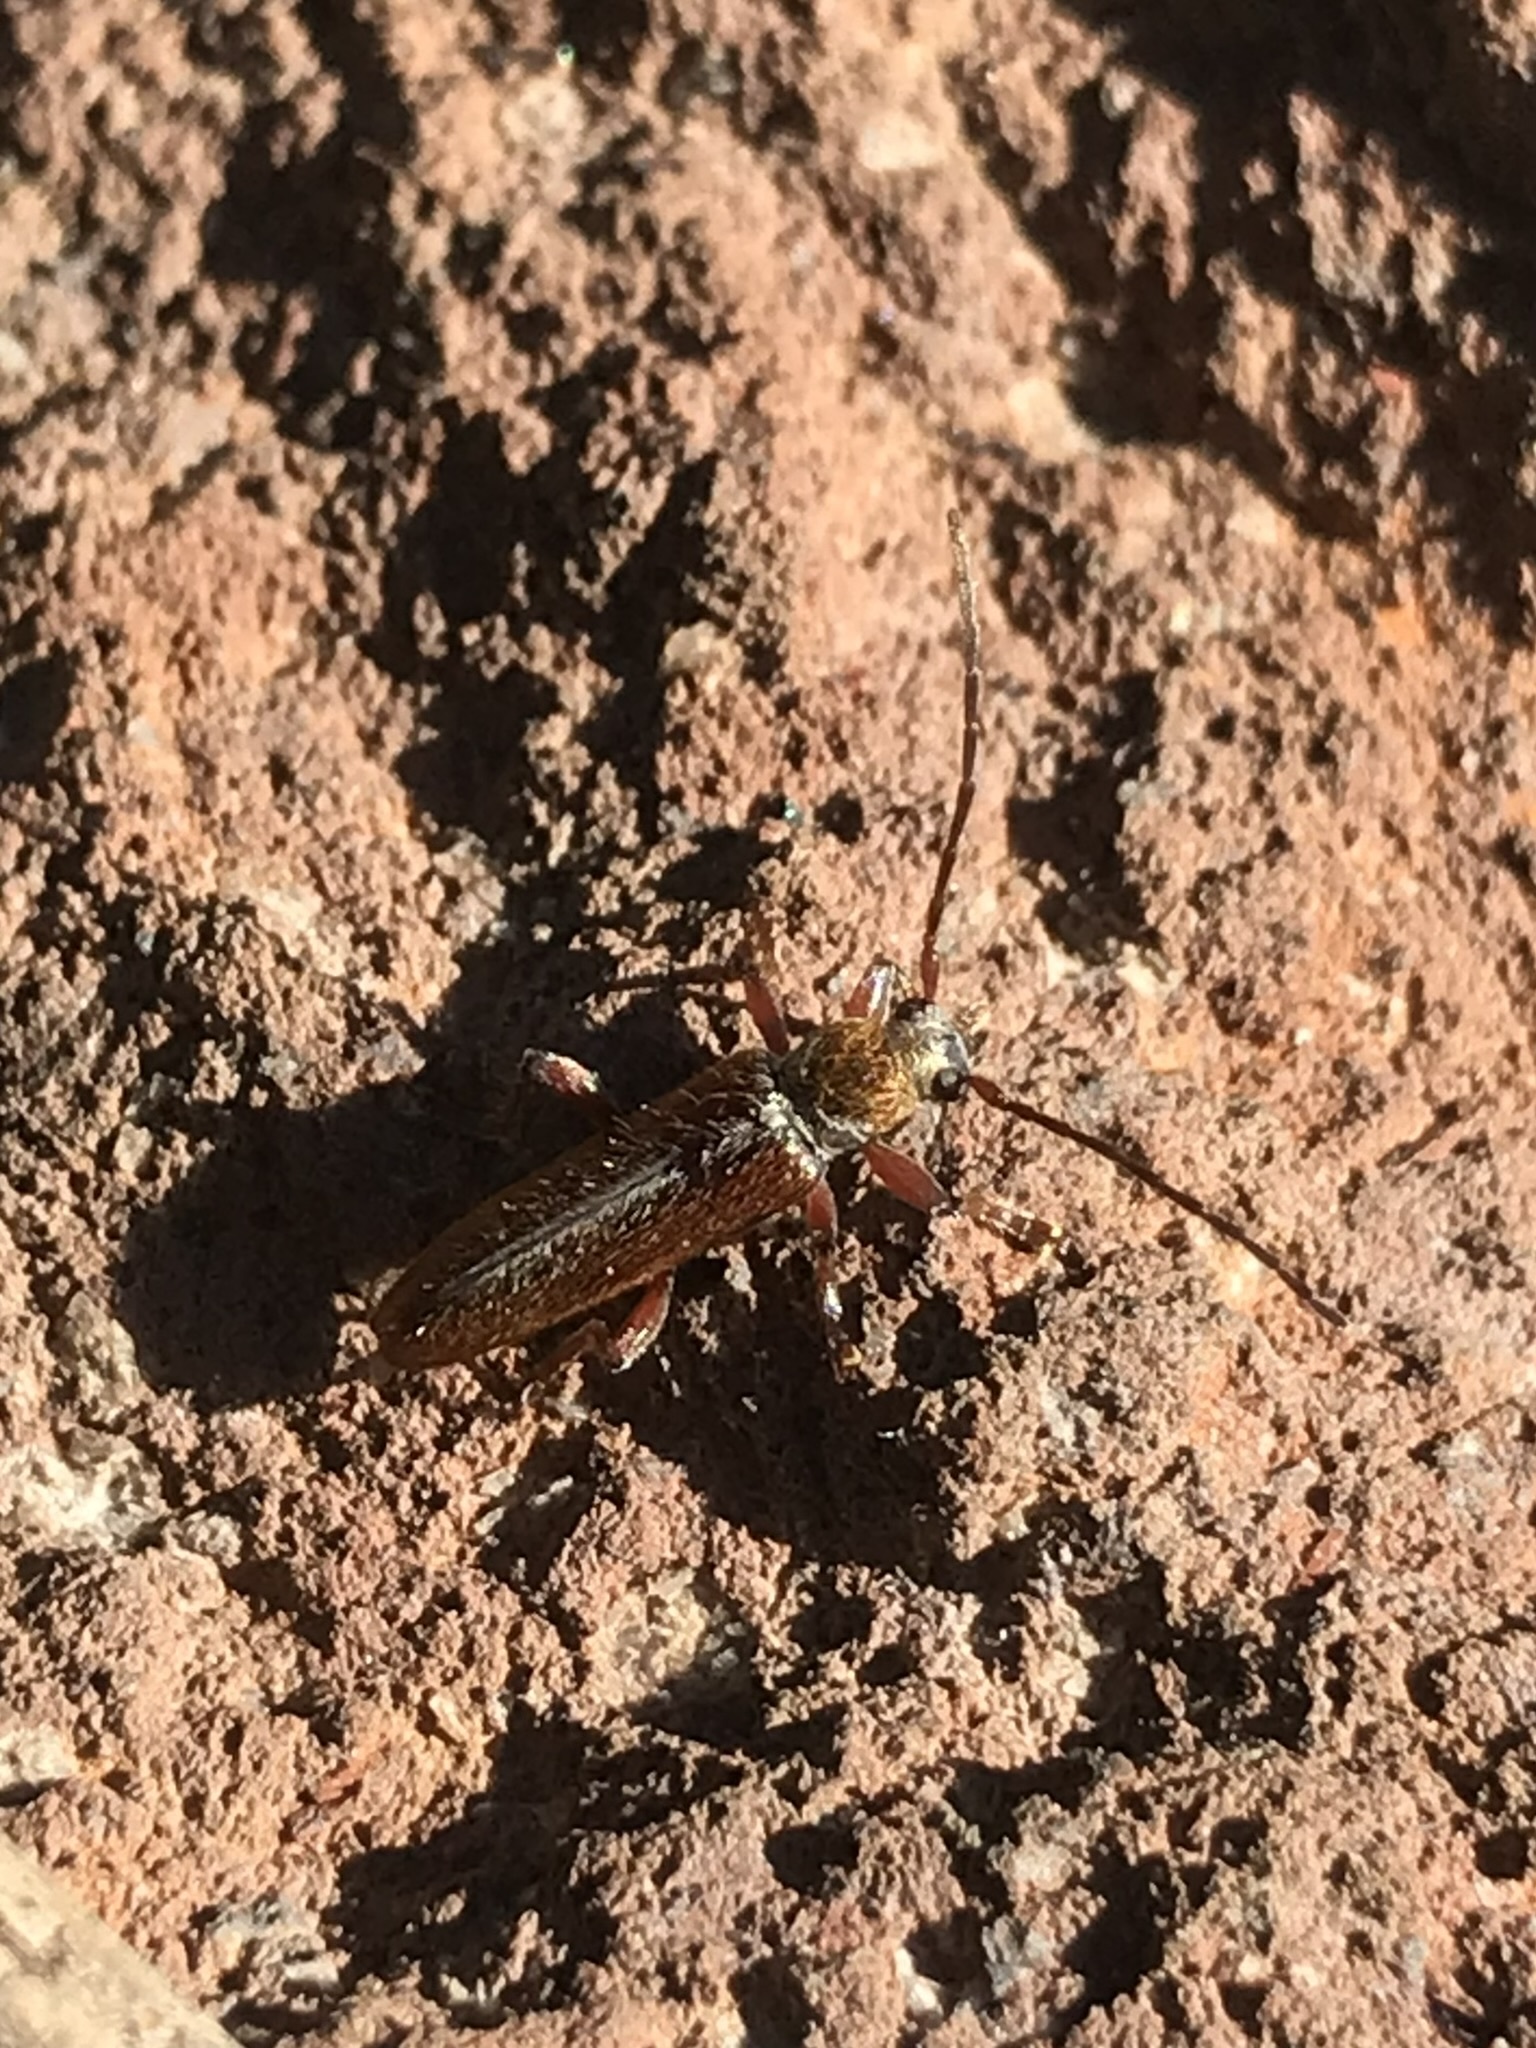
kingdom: Animalia
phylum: Arthropoda
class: Insecta
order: Coleoptera
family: Cerambycidae
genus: Paratimia
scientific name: Paratimia conicola
